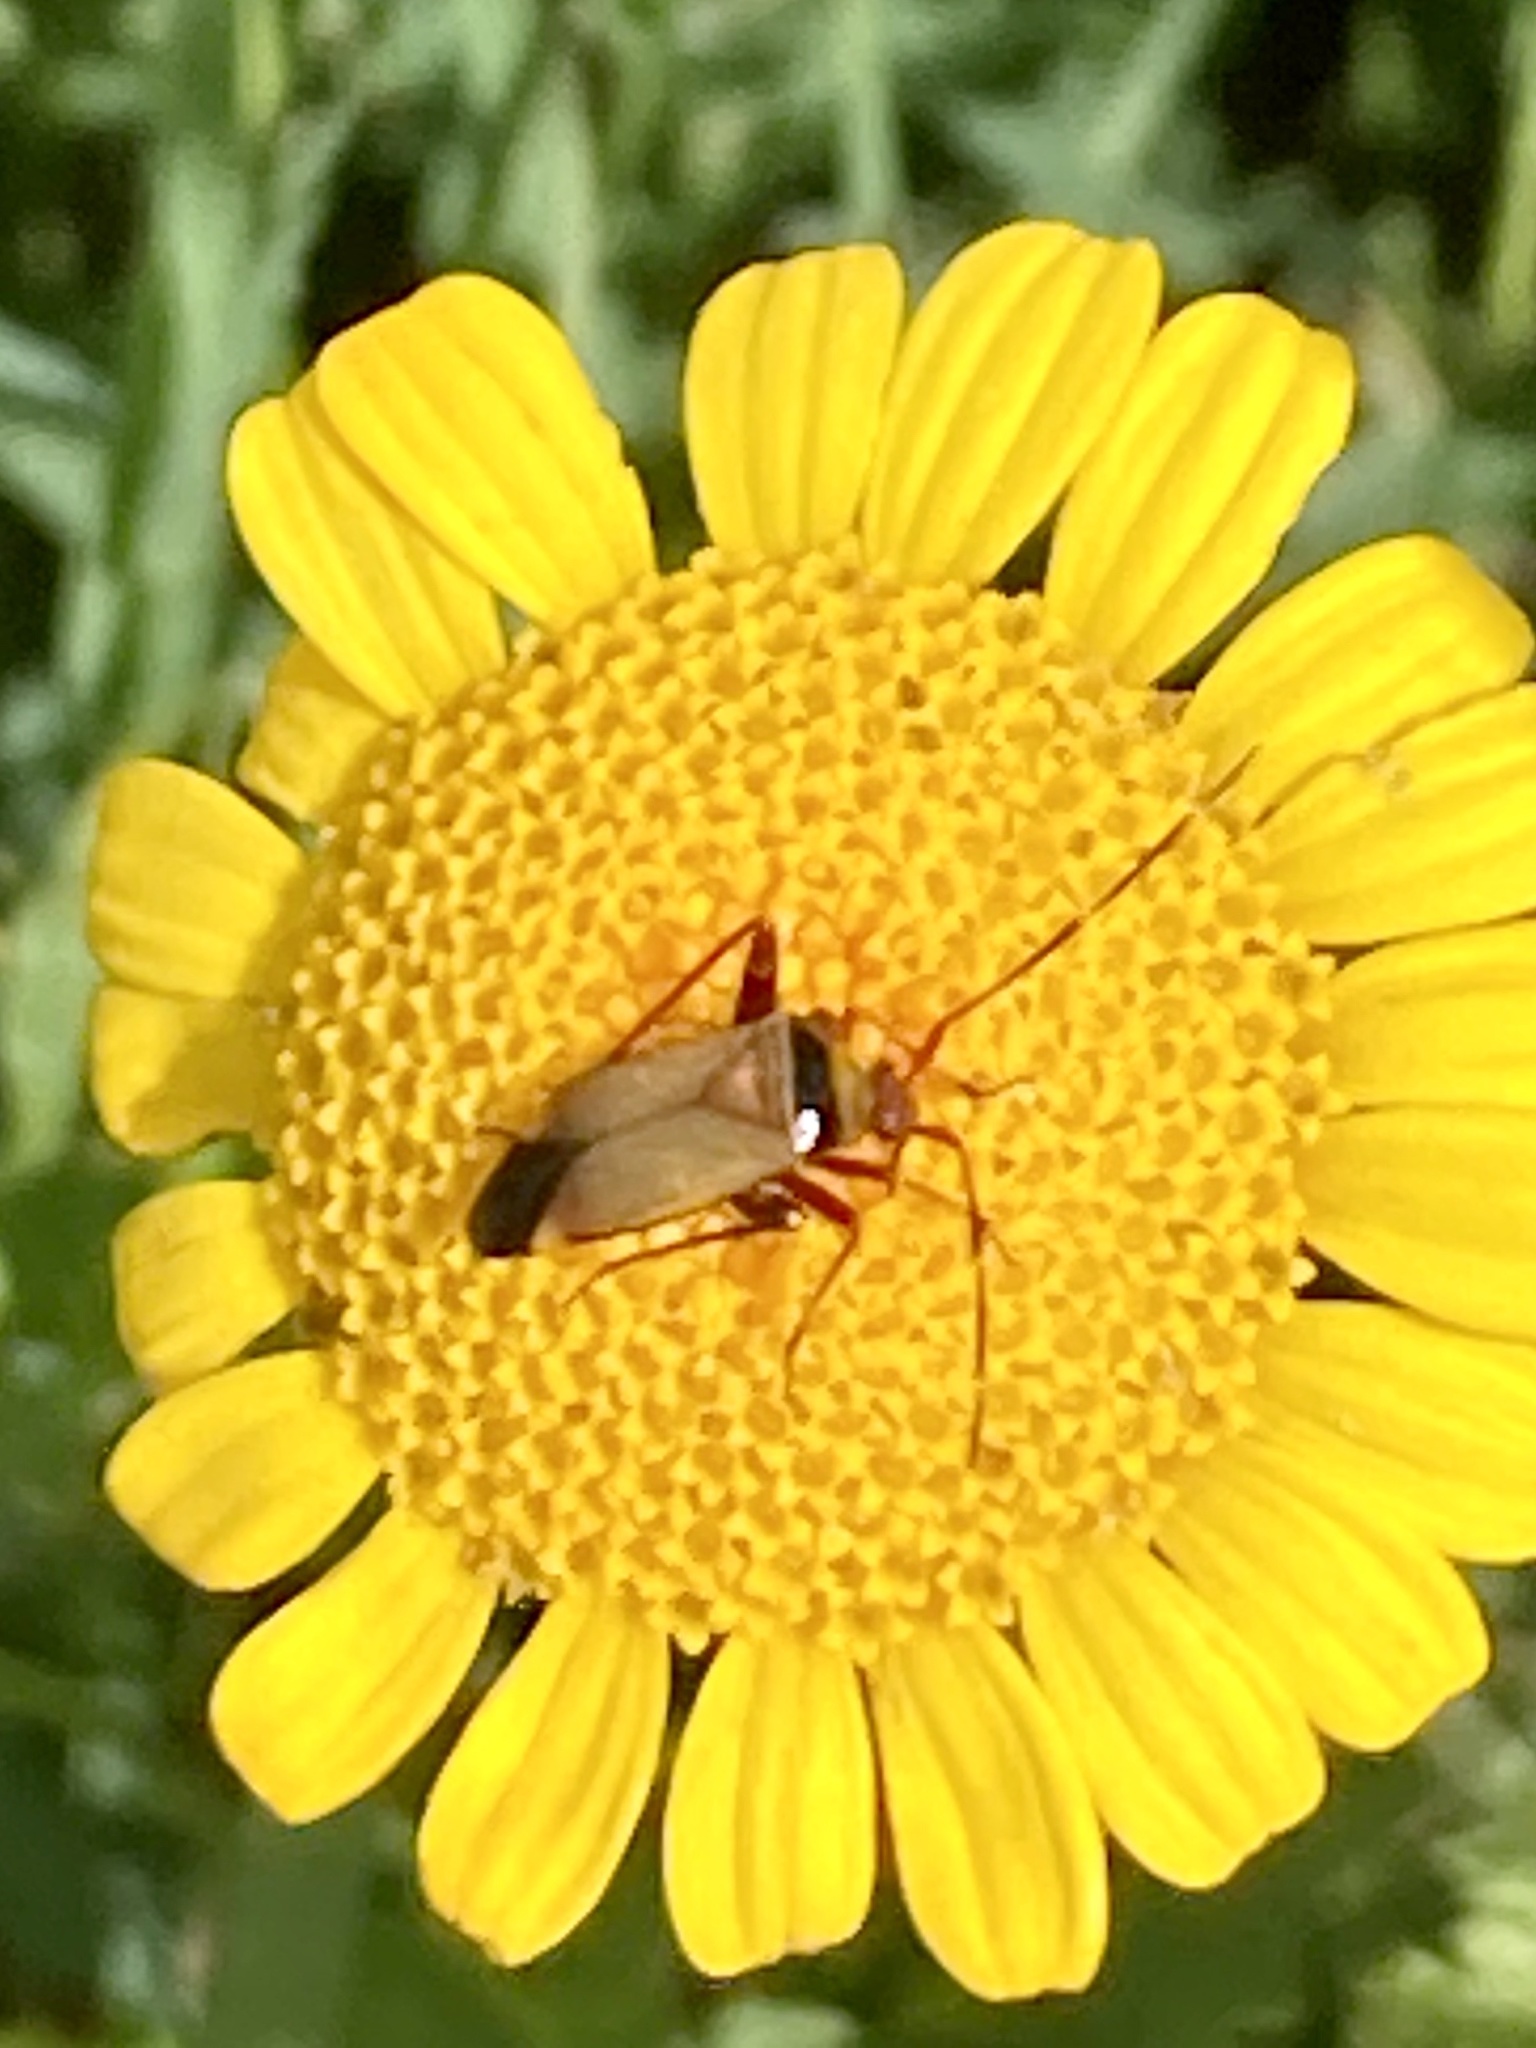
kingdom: Animalia
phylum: Arthropoda
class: Insecta
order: Hemiptera
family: Miridae
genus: Adelphocoris
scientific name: Adelphocoris vandalicus
